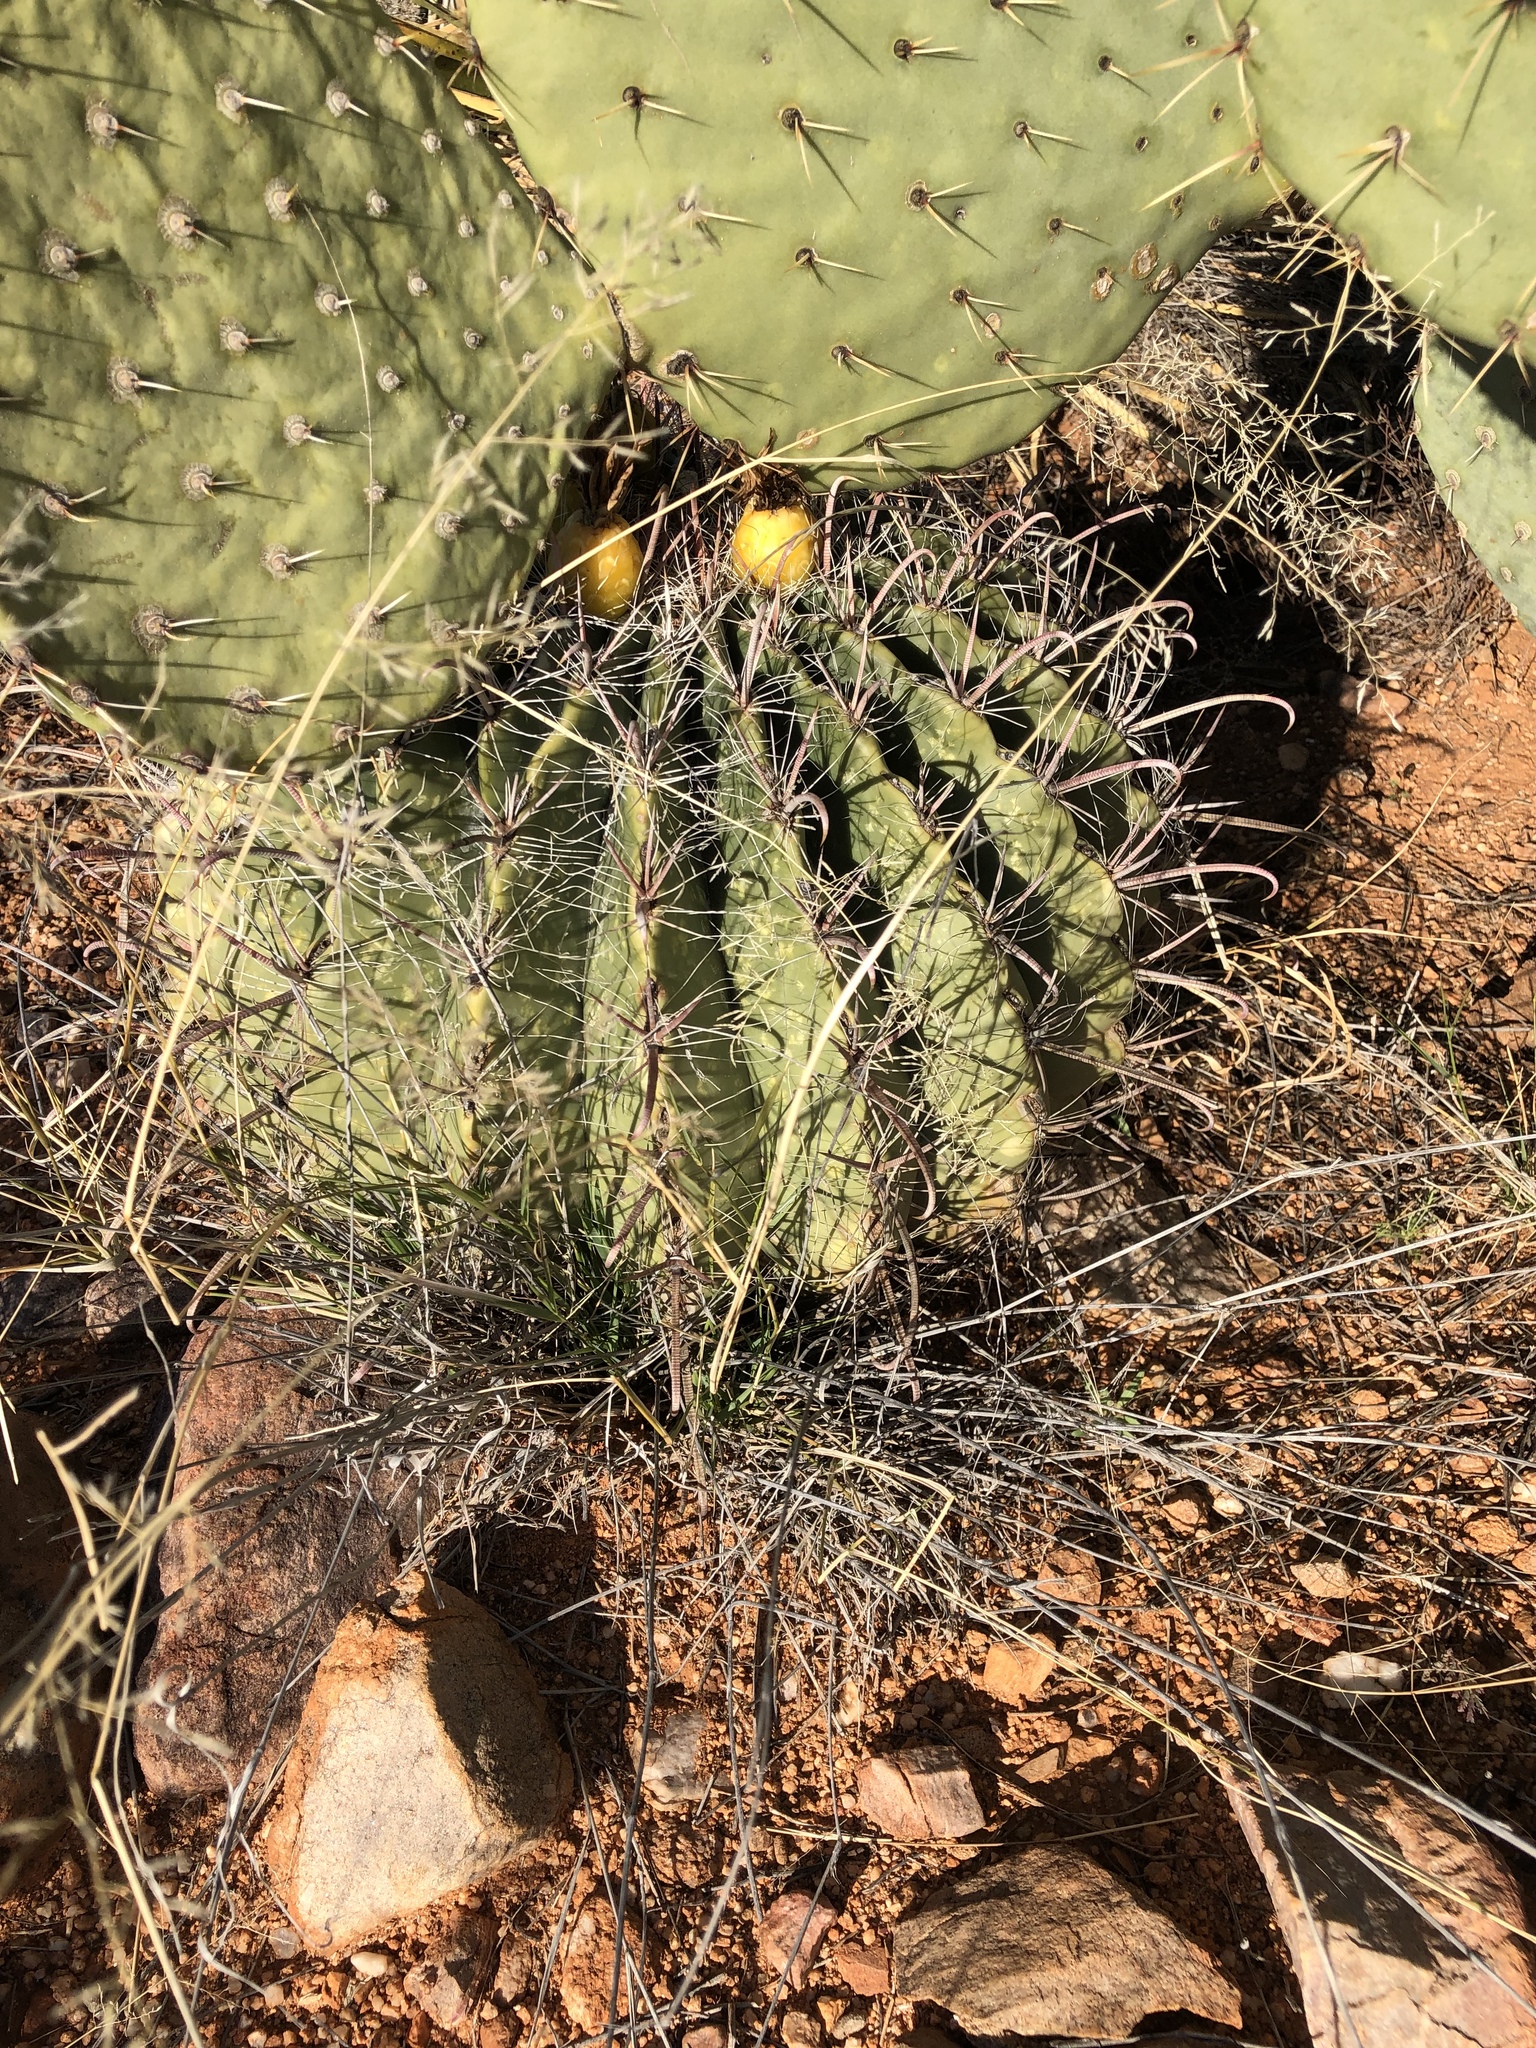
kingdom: Plantae
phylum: Tracheophyta
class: Magnoliopsida
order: Caryophyllales
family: Cactaceae
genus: Ferocactus
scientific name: Ferocactus wislizeni
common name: Candy barrel cactus
